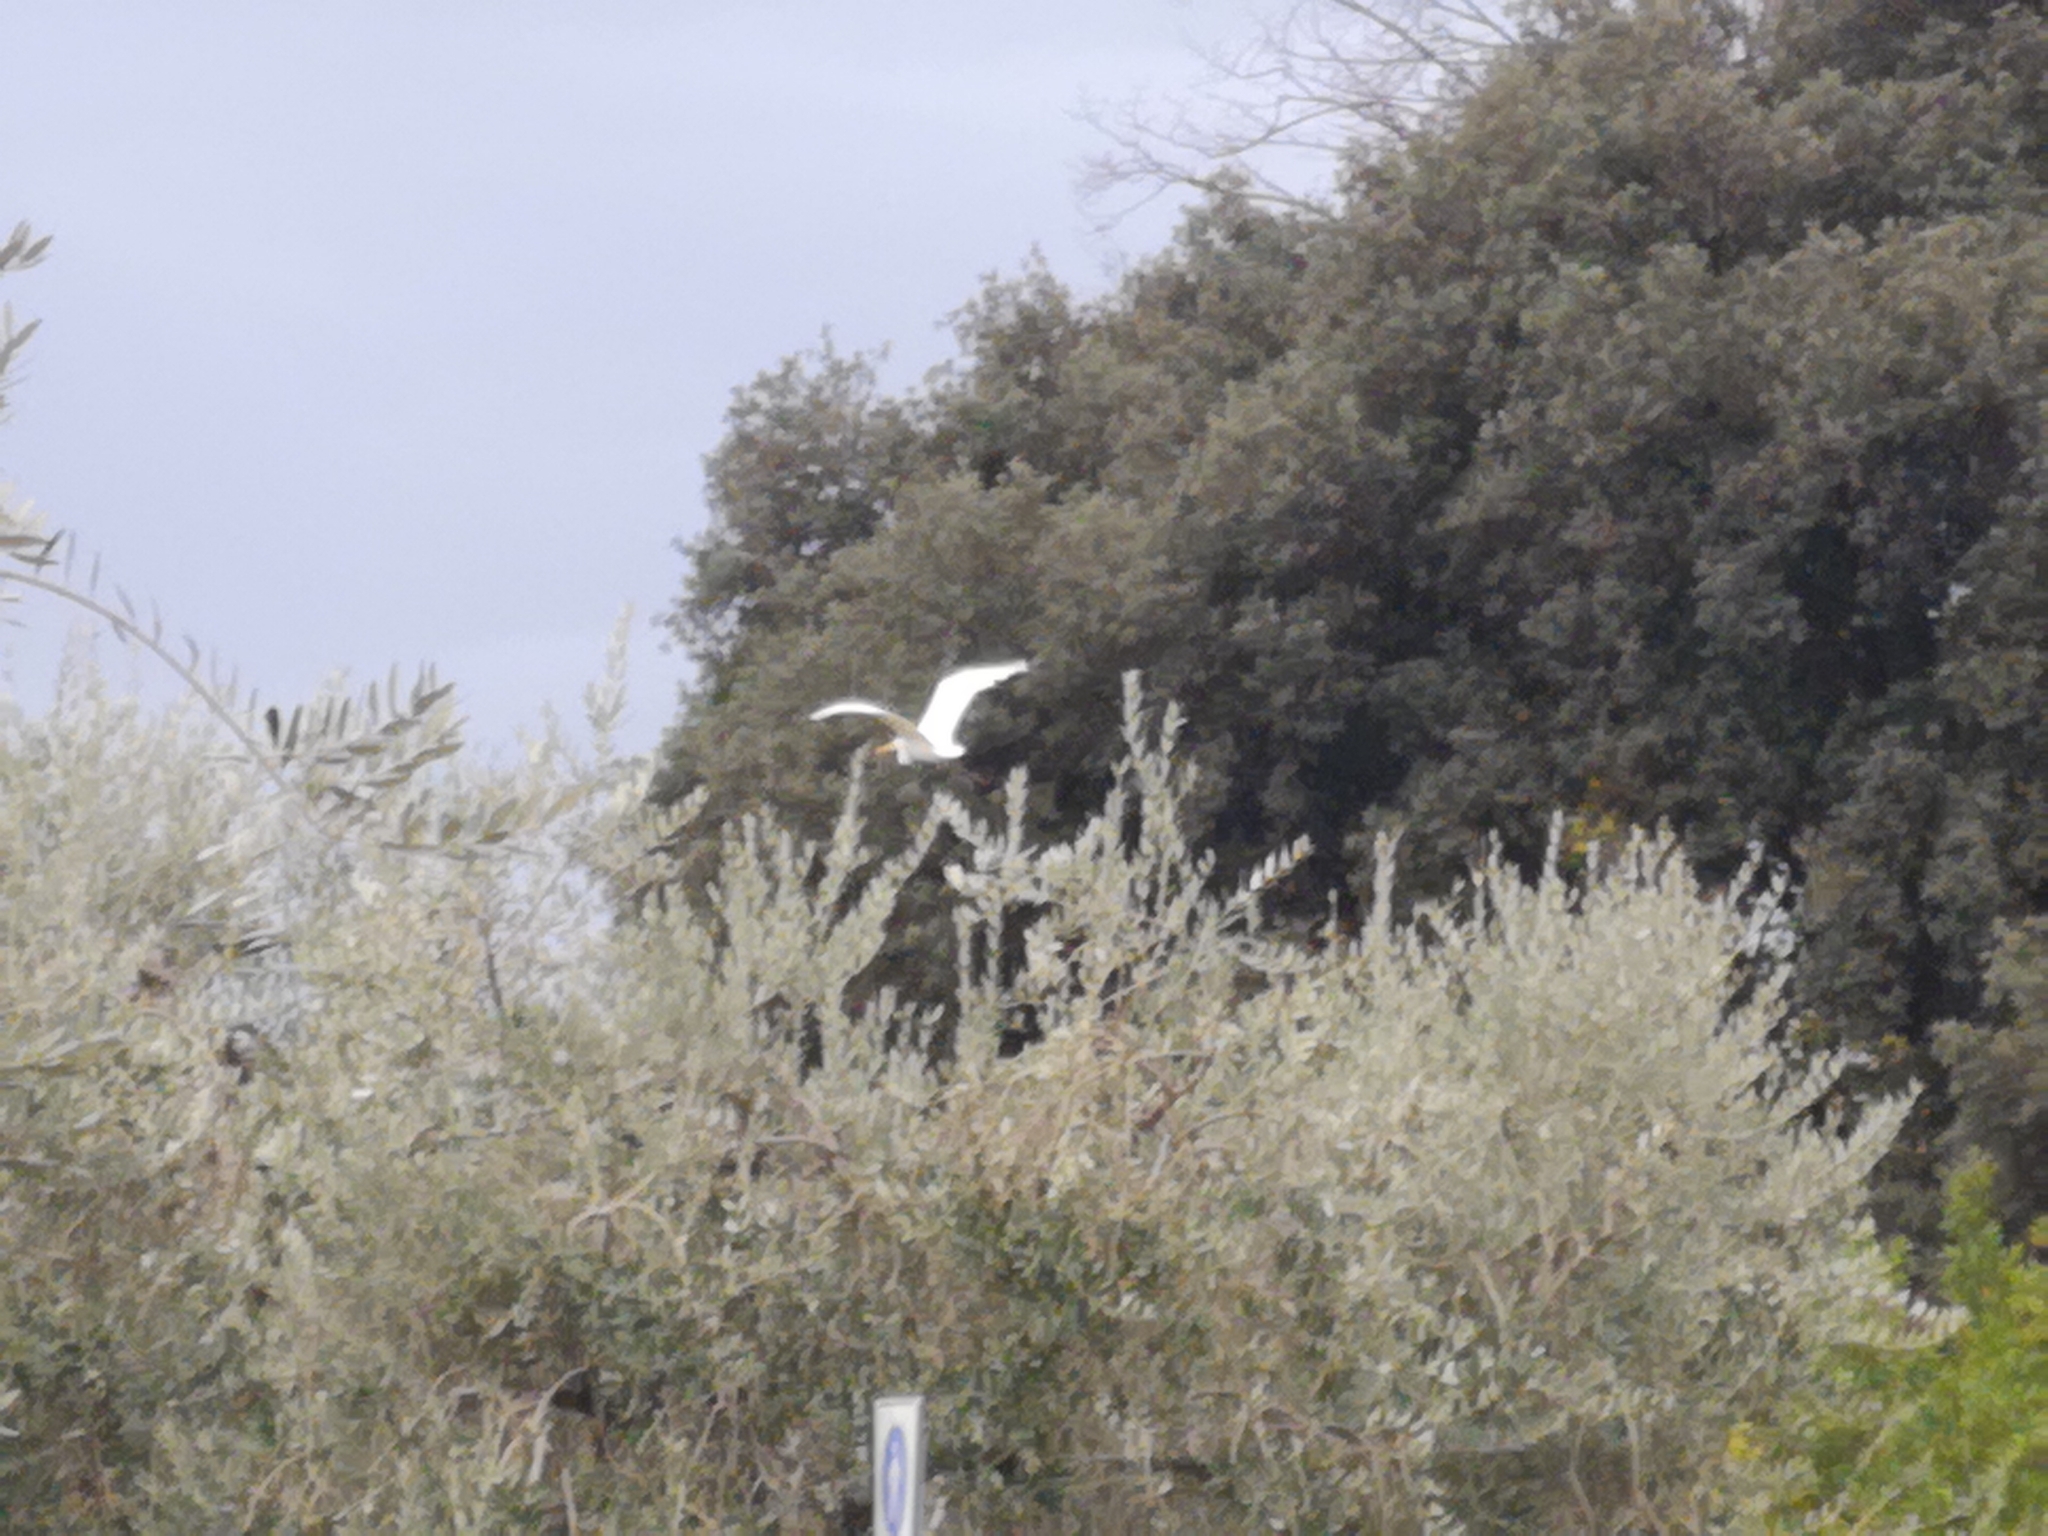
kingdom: Animalia
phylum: Chordata
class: Aves
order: Pelecaniformes
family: Ardeidae
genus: Ardea
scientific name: Ardea alba
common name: Great egret
